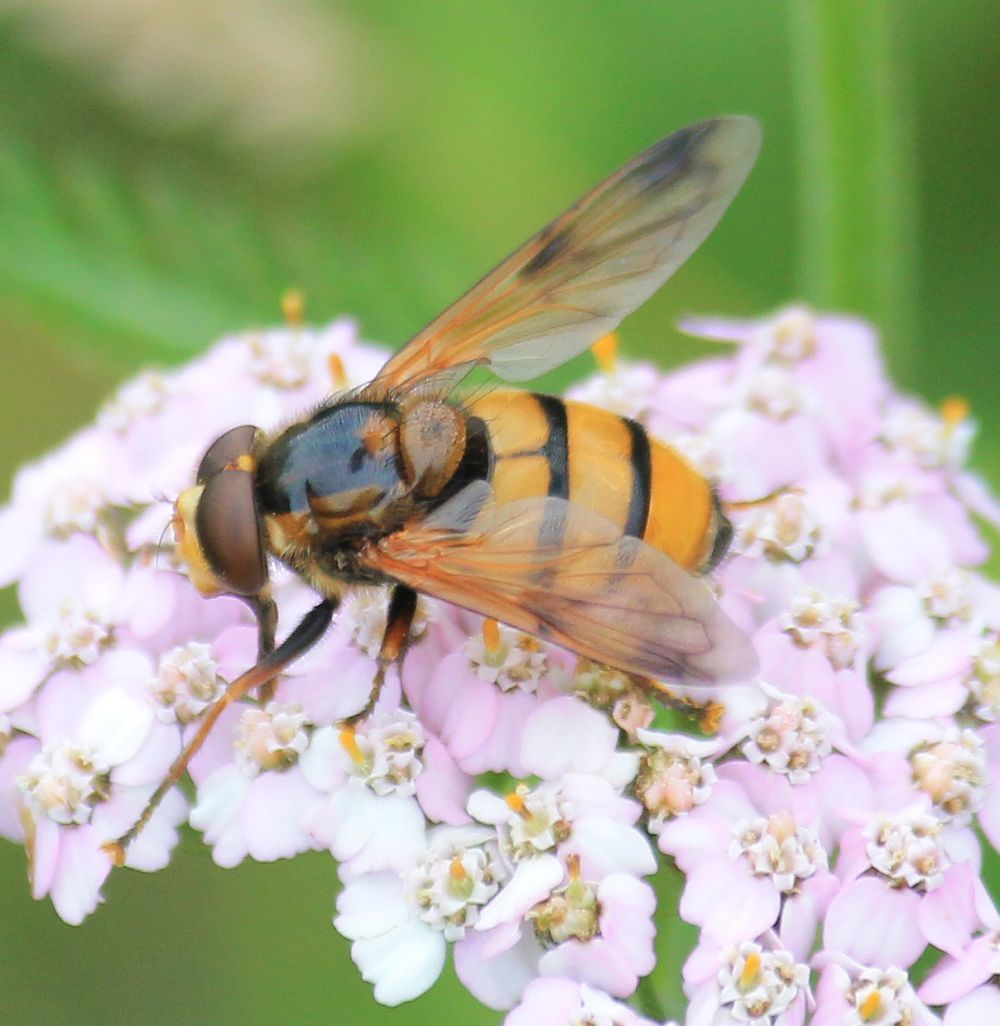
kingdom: Animalia
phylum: Arthropoda
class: Insecta
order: Diptera
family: Syrphidae
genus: Volucella
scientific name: Volucella inanis
